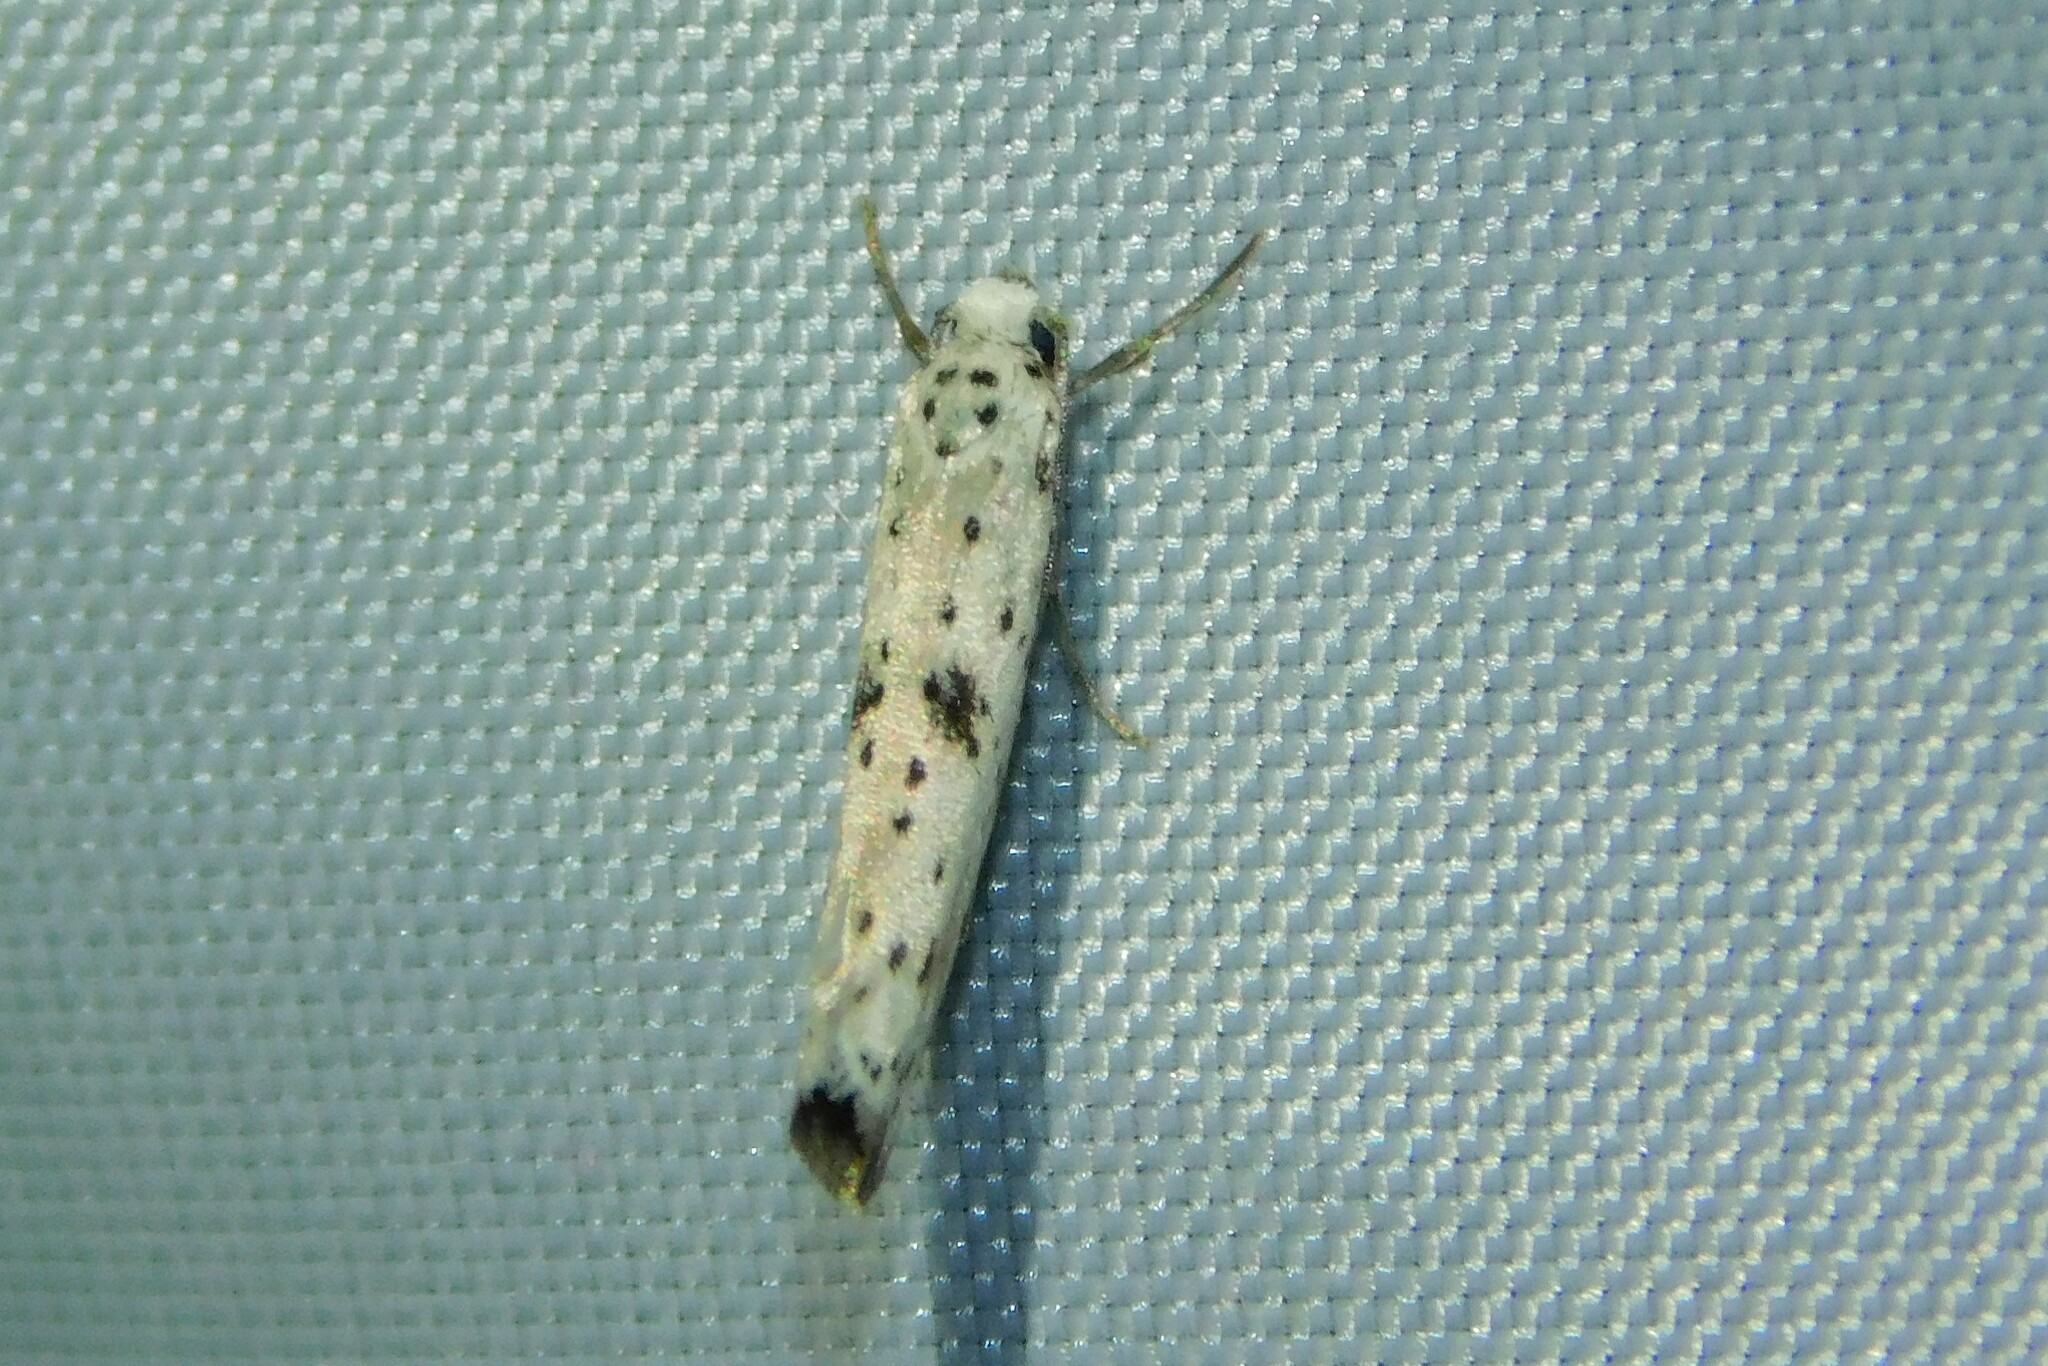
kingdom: Animalia
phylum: Arthropoda
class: Insecta
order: Lepidoptera
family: Yponomeutidae
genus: Yponomeuta
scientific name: Yponomeuta plumbella
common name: Black-tipped ermine
